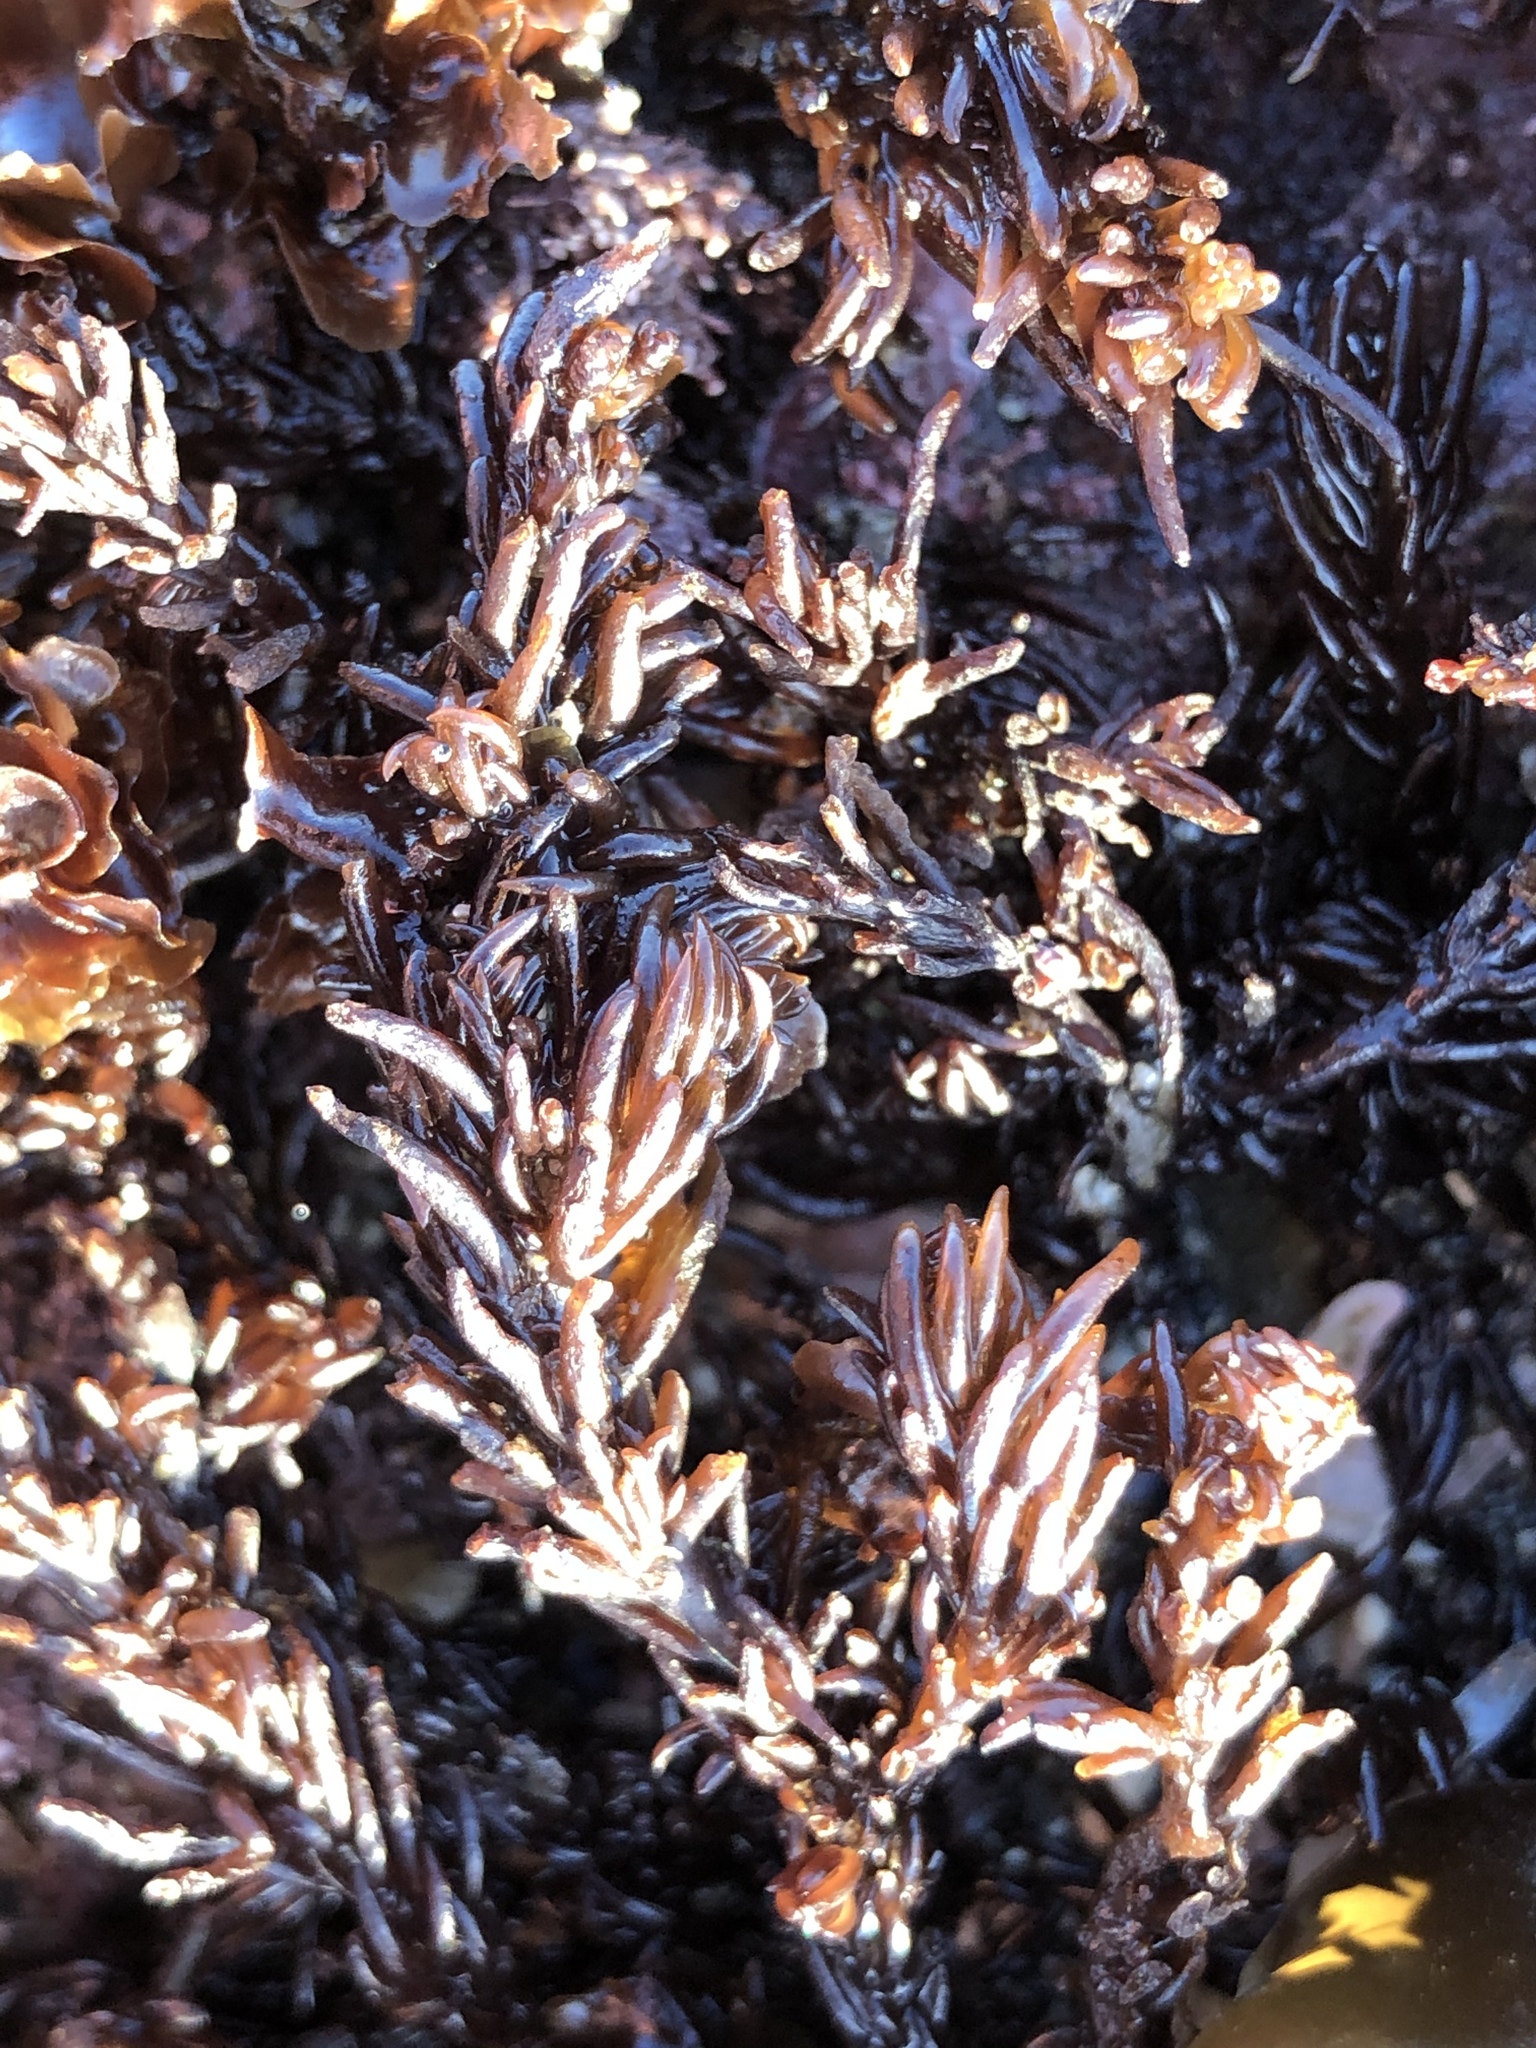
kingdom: Plantae
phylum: Rhodophyta
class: Florideophyceae
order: Ceramiales
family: Rhodomelaceae
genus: Neorhodomela
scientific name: Neorhodomela larix
